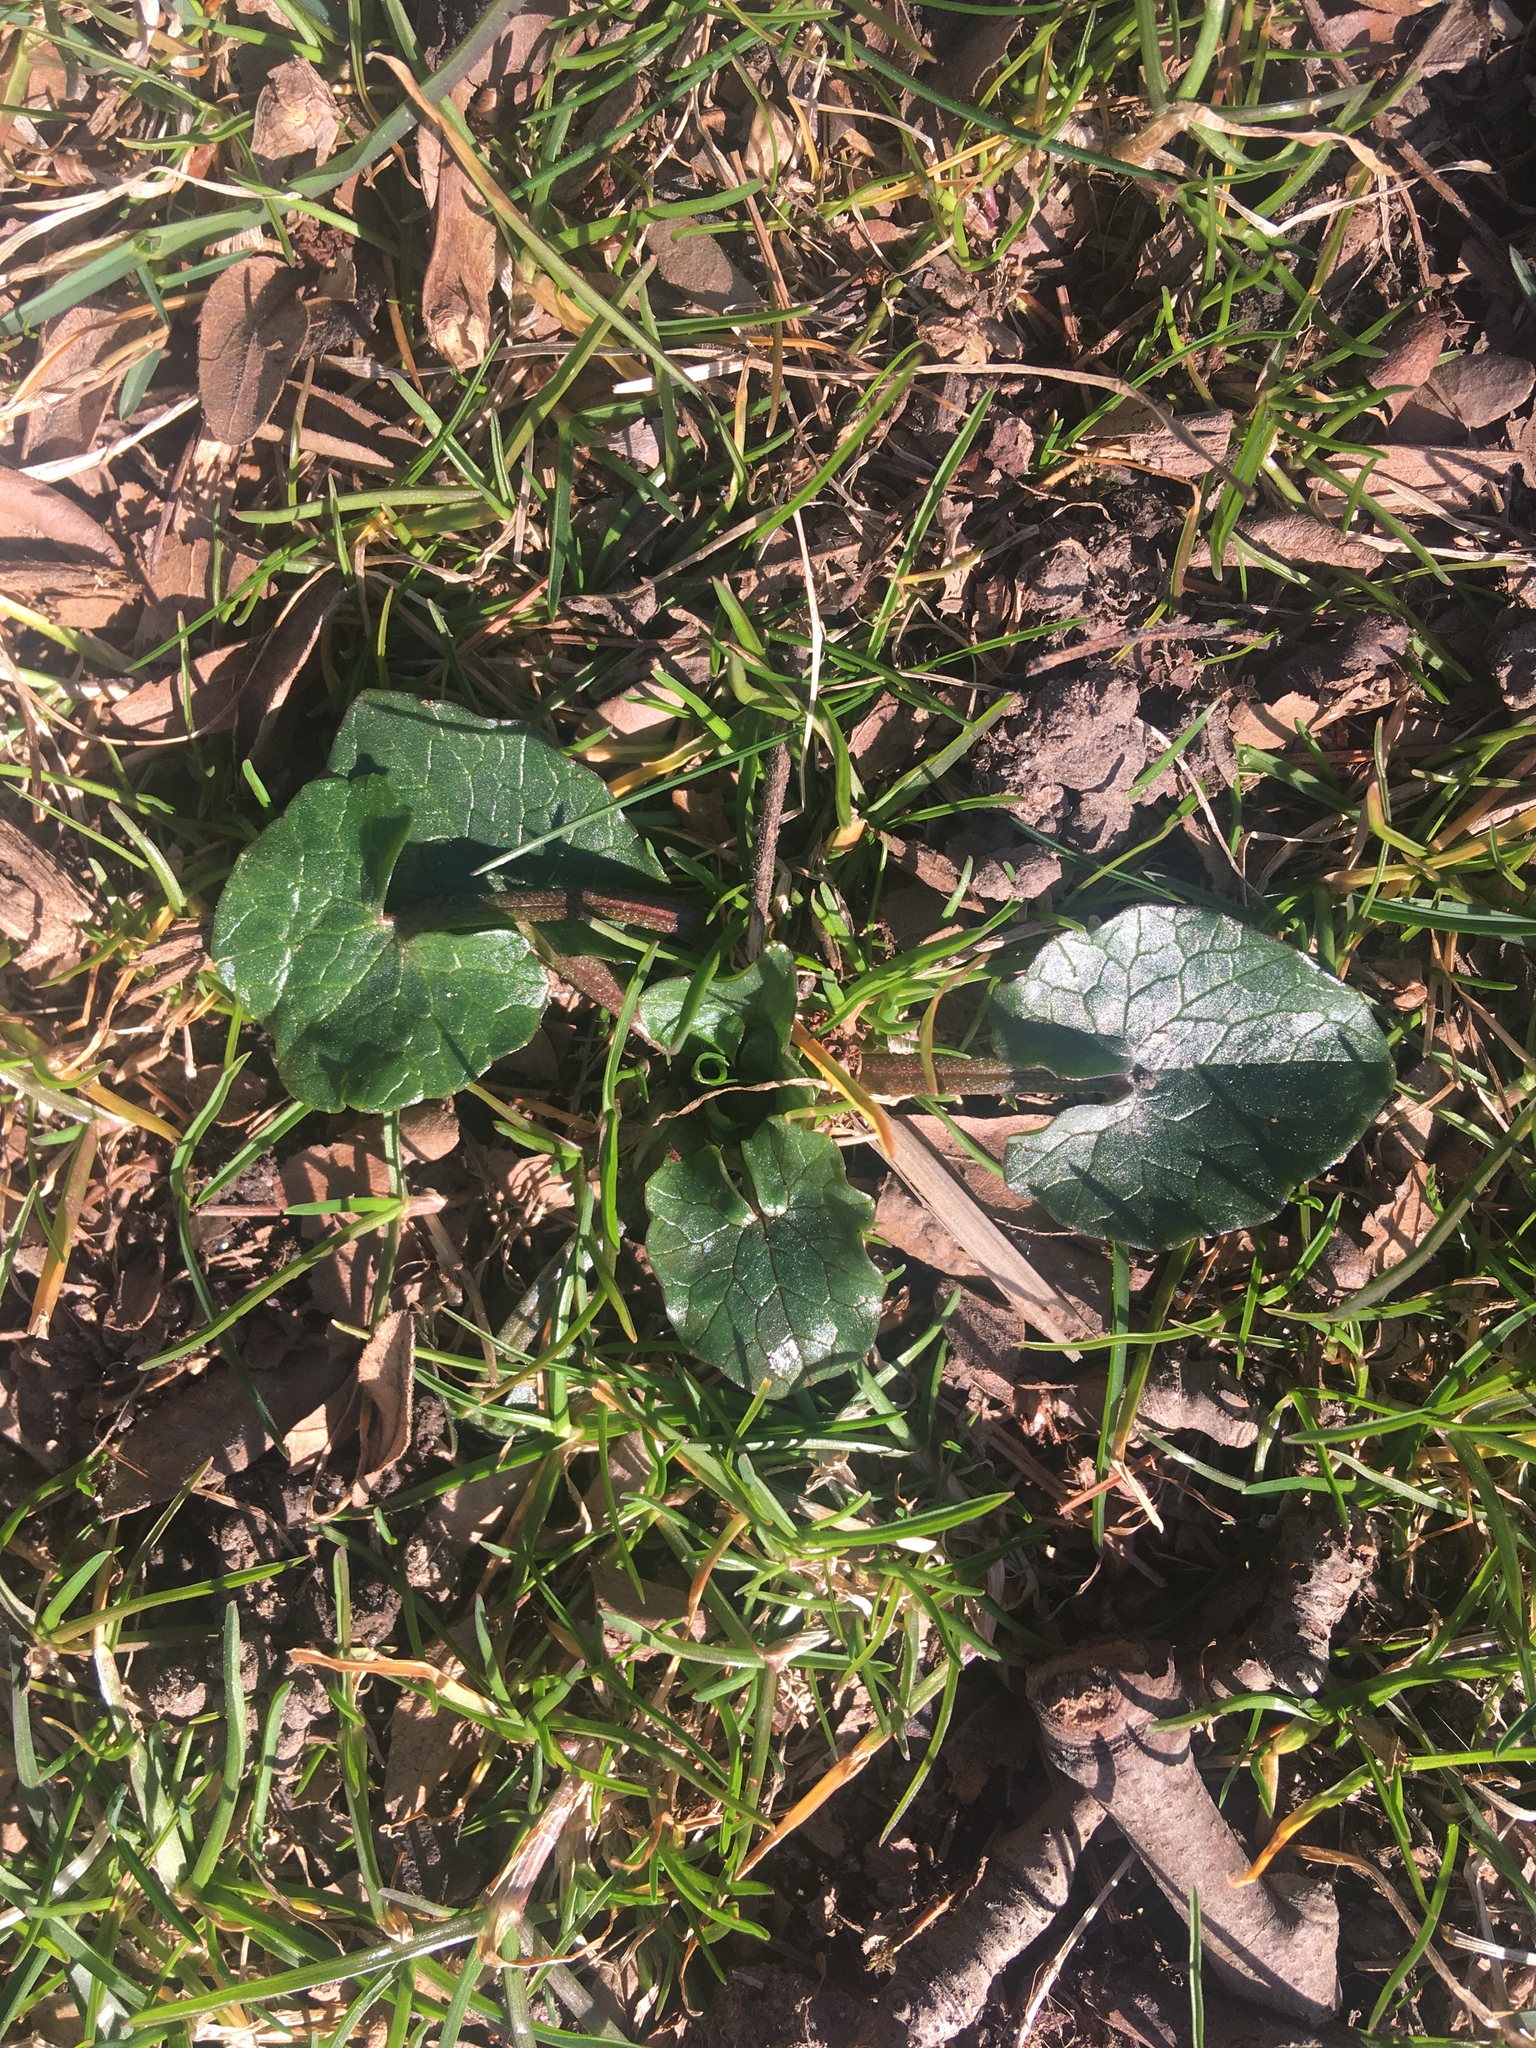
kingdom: Plantae
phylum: Tracheophyta
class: Magnoliopsida
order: Ranunculales
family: Ranunculaceae
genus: Ficaria
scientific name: Ficaria verna
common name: Lesser celandine
